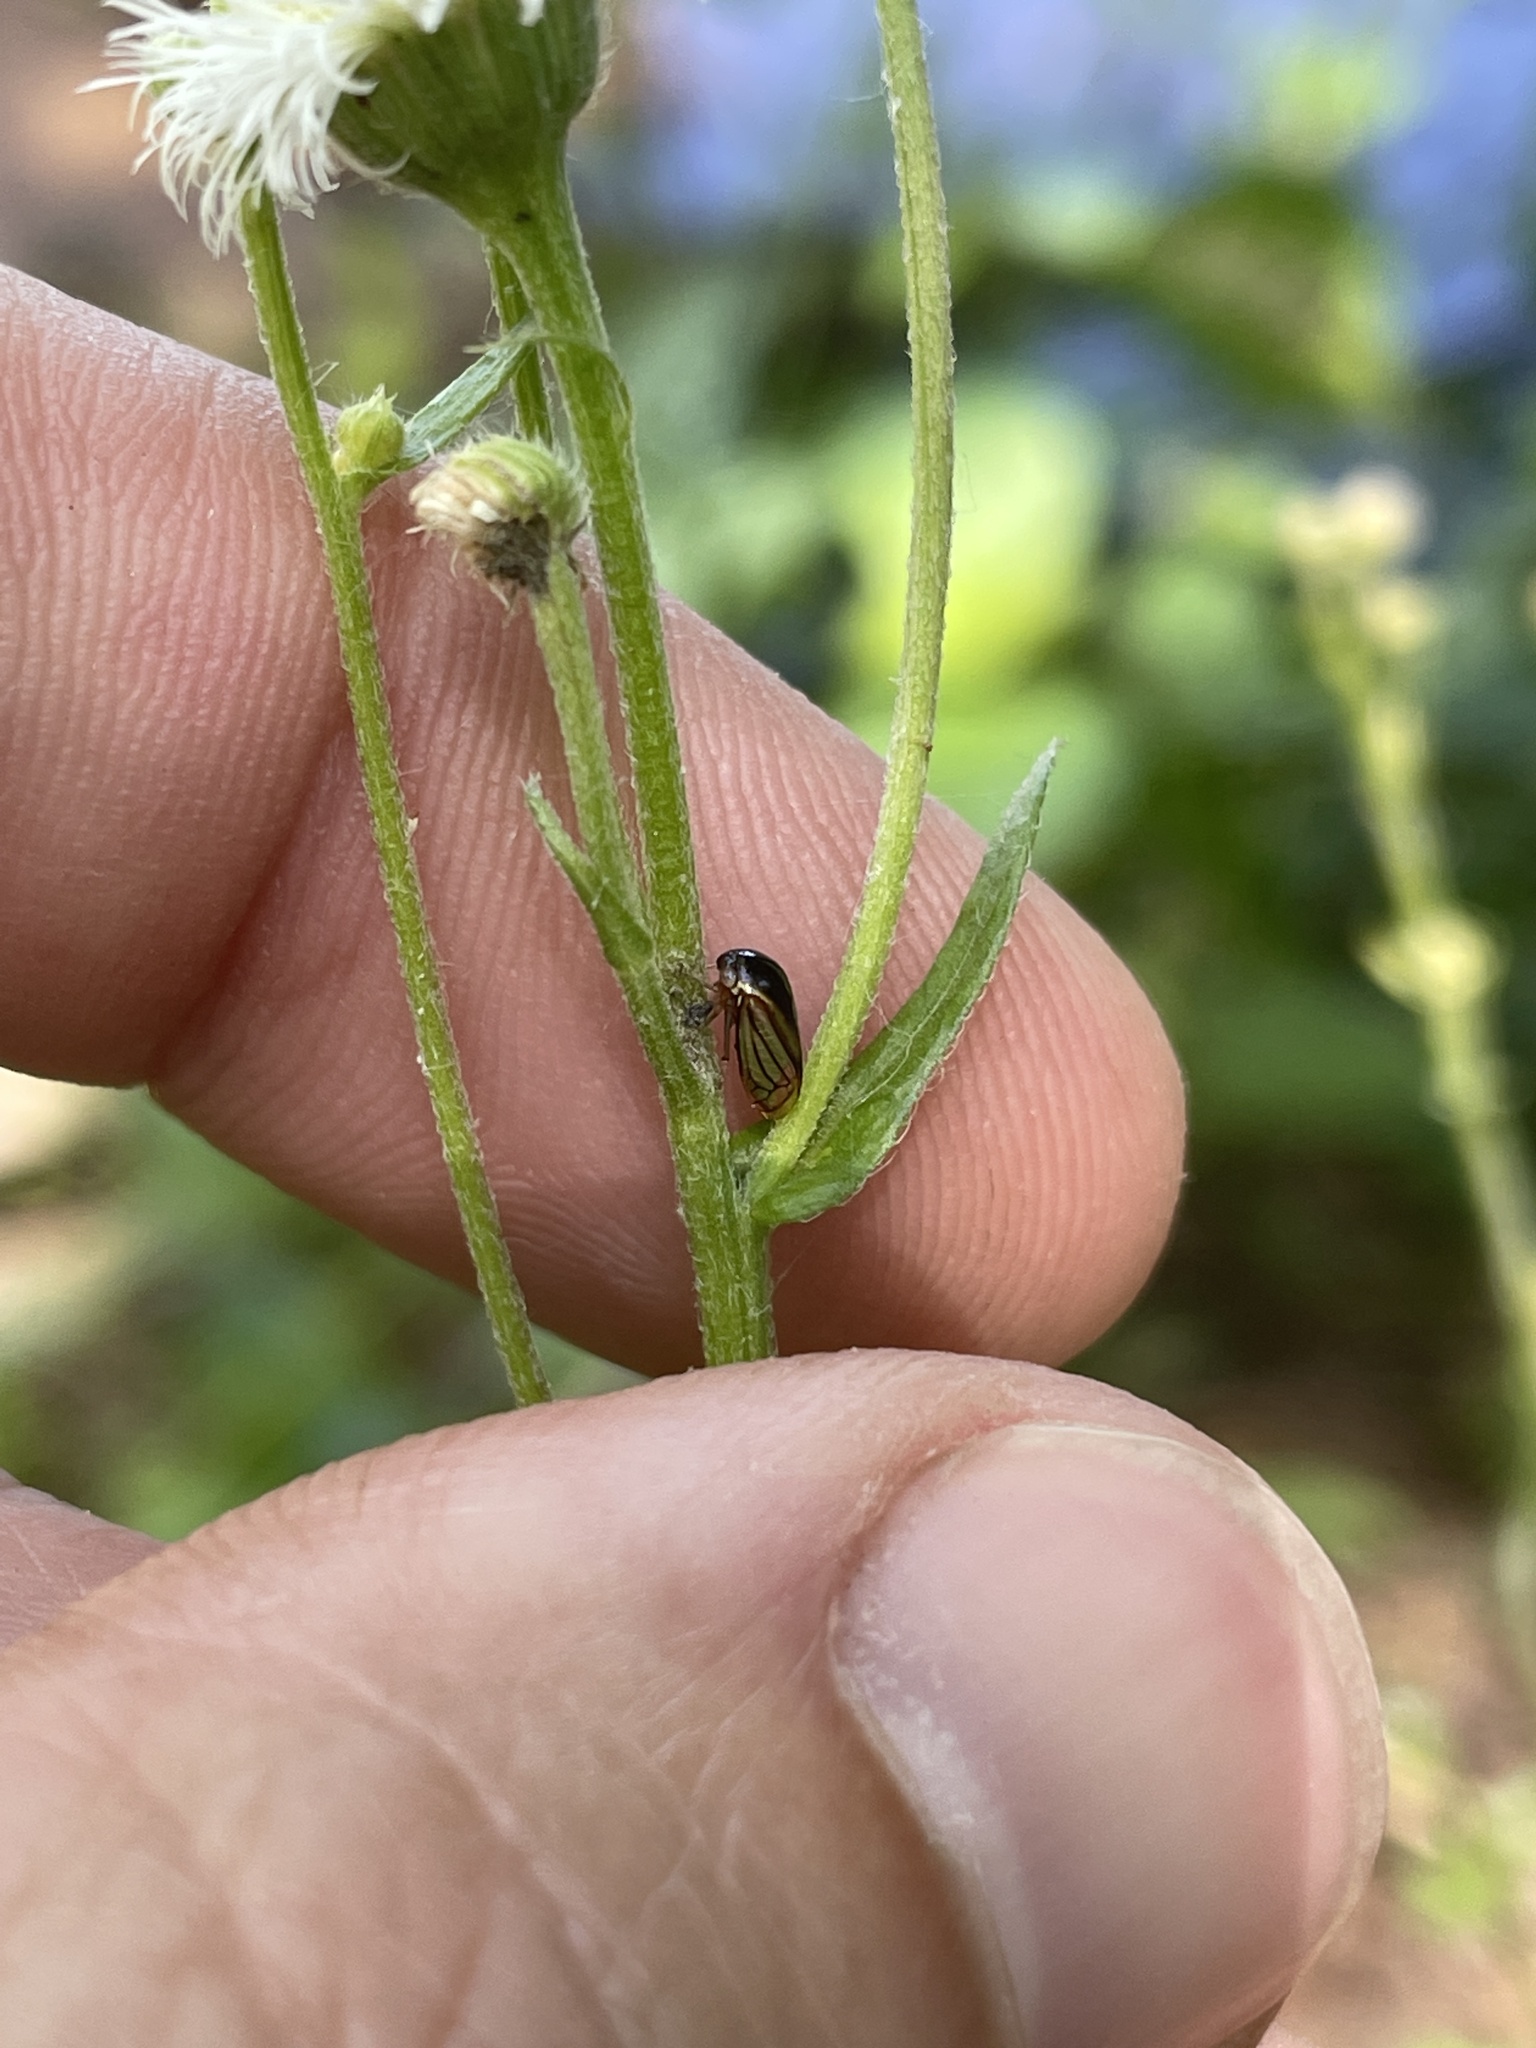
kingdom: Animalia
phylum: Arthropoda
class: Insecta
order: Hemiptera
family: Membracidae
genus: Acutalis
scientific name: Acutalis tartarea
